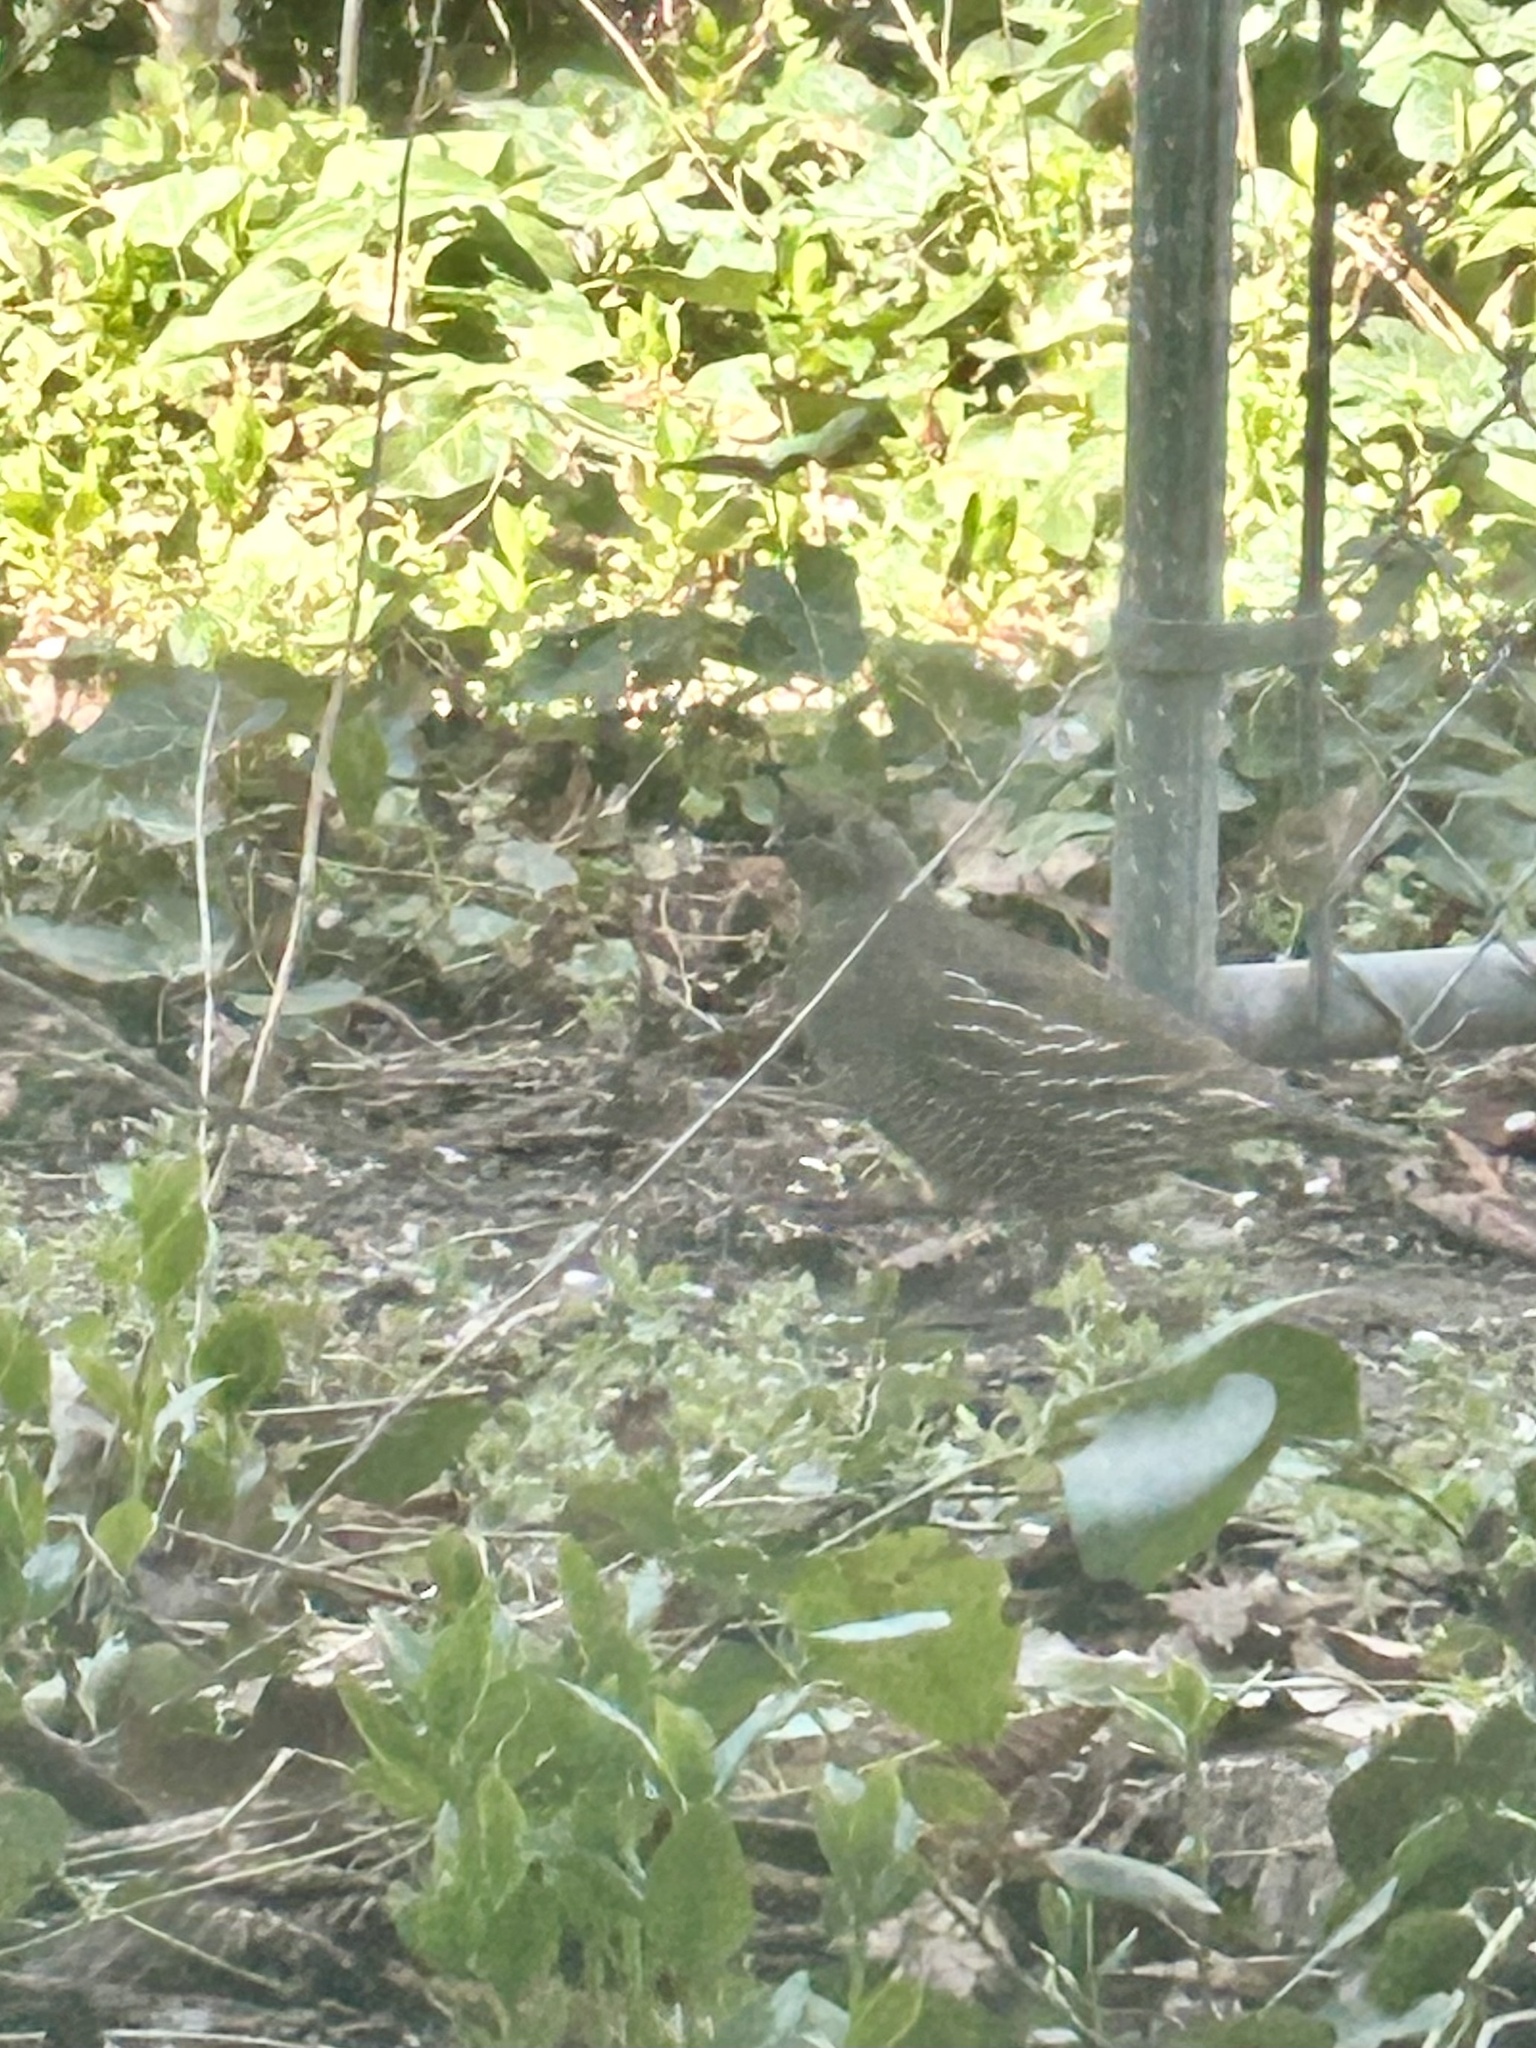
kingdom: Animalia
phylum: Chordata
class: Aves
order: Galliformes
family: Odontophoridae
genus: Callipepla
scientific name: Callipepla californica
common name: California quail
